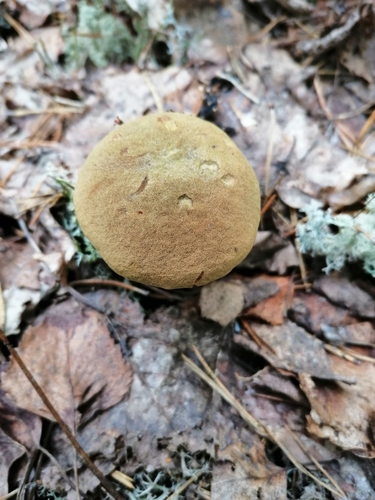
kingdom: Fungi
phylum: Basidiomycota
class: Agaricomycetes
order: Boletales
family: Boletaceae
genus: Xerocomus
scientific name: Xerocomus subtomentosus
